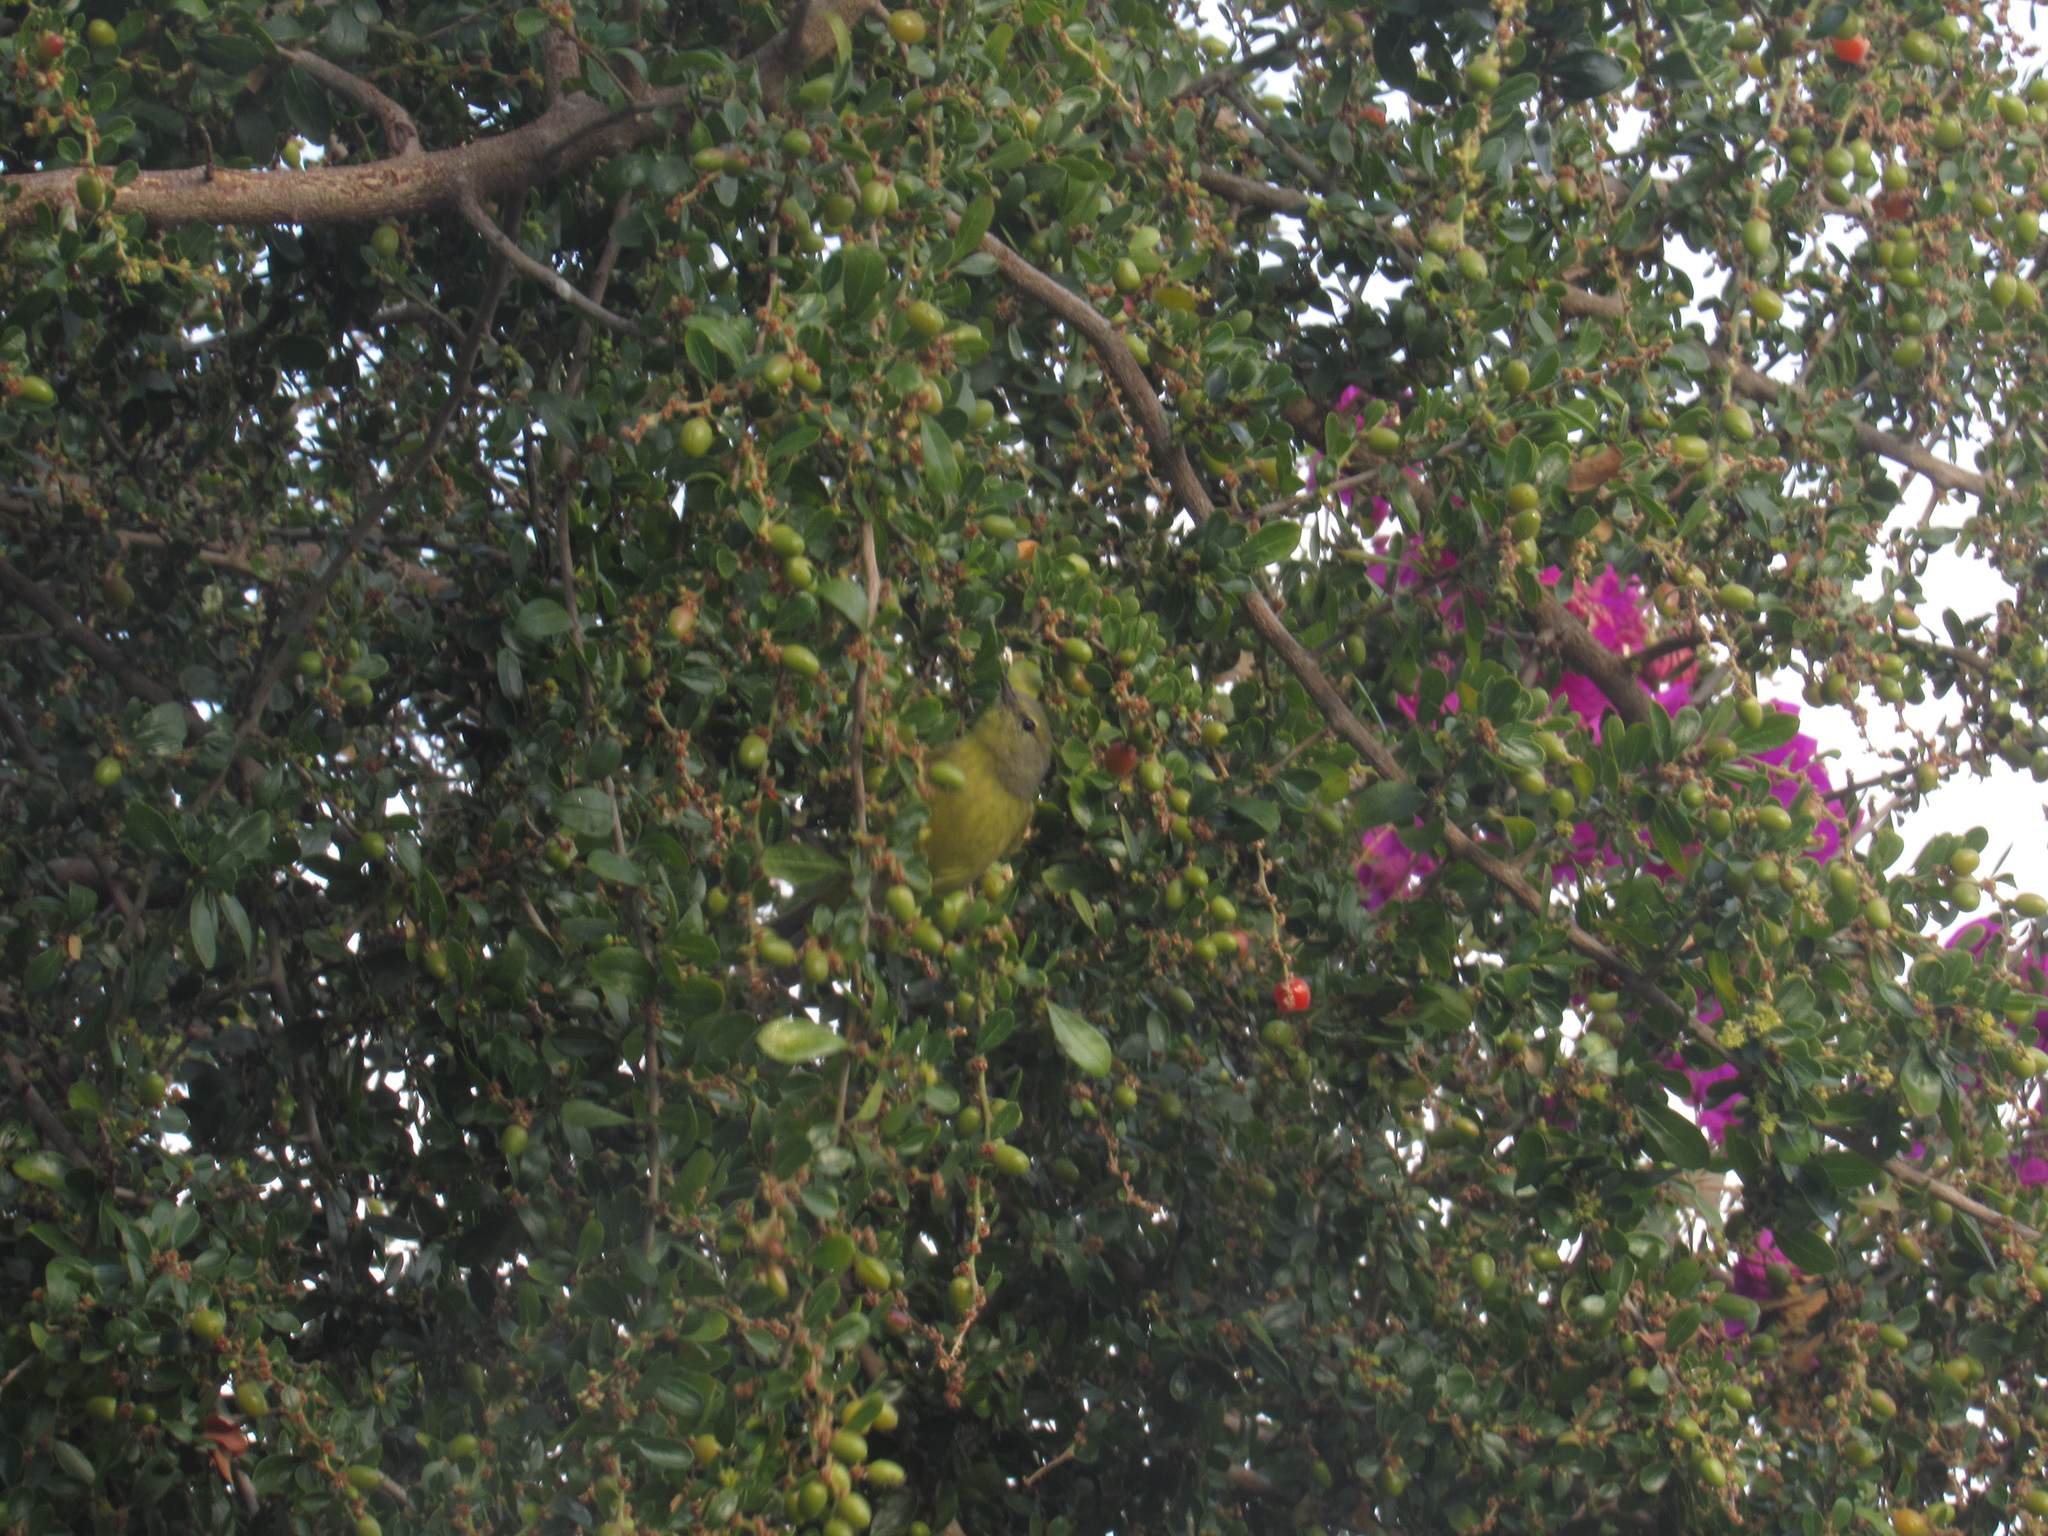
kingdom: Animalia
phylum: Chordata
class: Aves
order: Passeriformes
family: Parulidae
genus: Leiothlypis
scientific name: Leiothlypis celata
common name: Orange-crowned warbler
